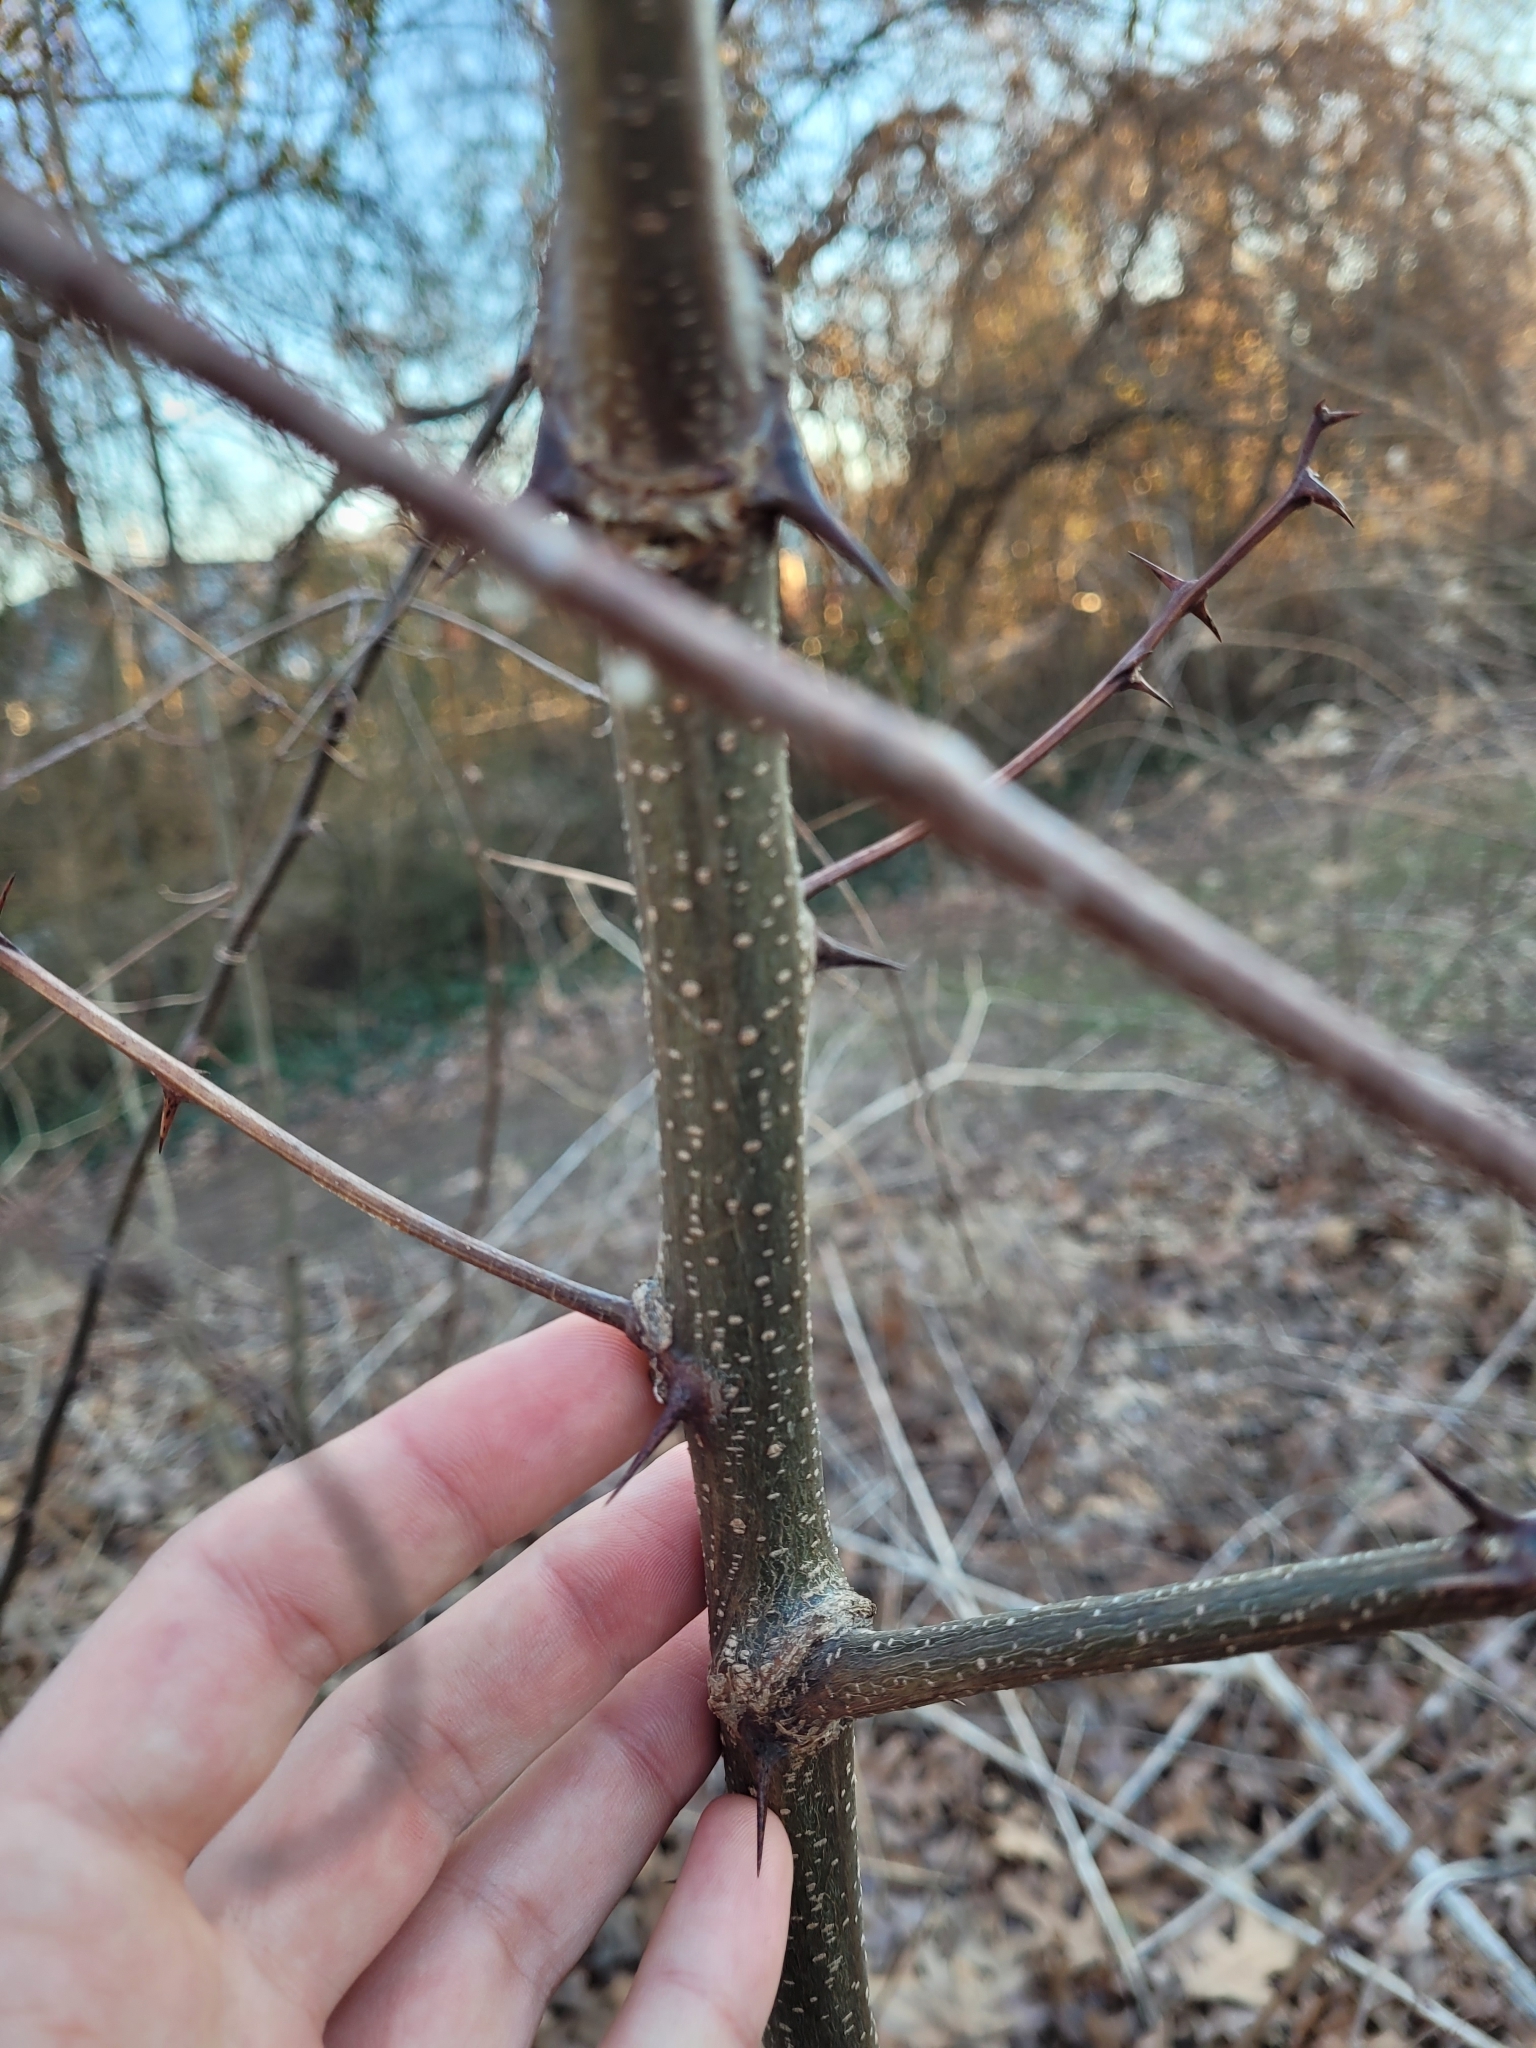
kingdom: Plantae
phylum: Tracheophyta
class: Magnoliopsida
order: Fabales
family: Fabaceae
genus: Robinia
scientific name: Robinia pseudoacacia
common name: Black locust
